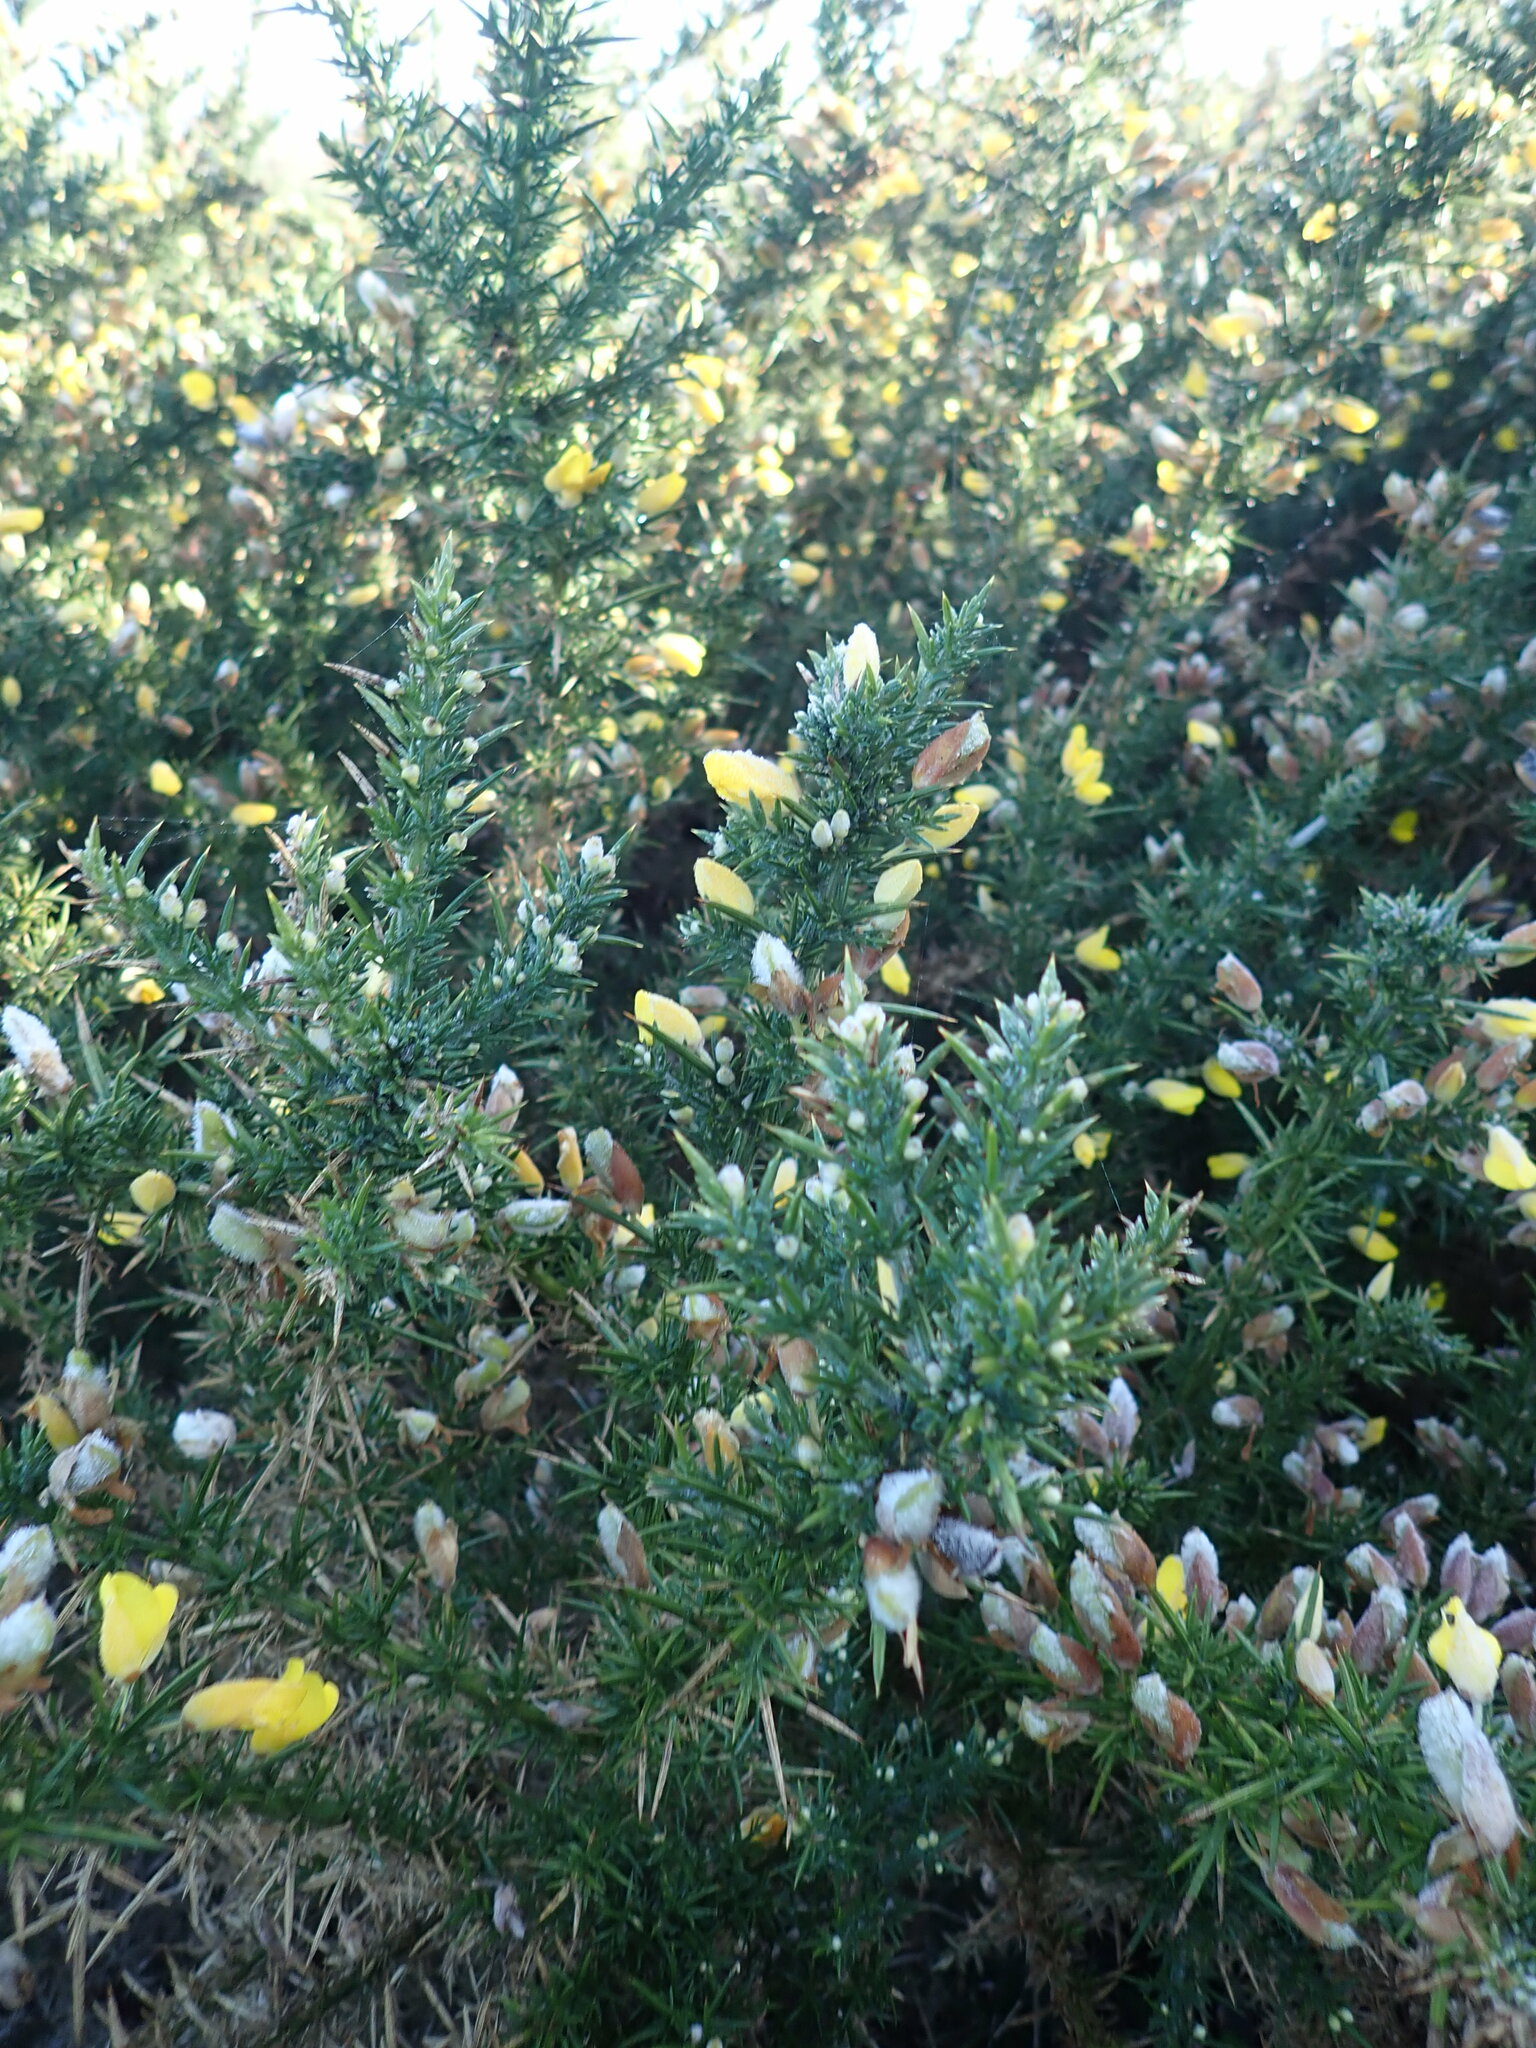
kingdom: Plantae
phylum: Tracheophyta
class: Magnoliopsida
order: Fabales
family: Fabaceae
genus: Ulex
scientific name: Ulex europaeus
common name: Common gorse
